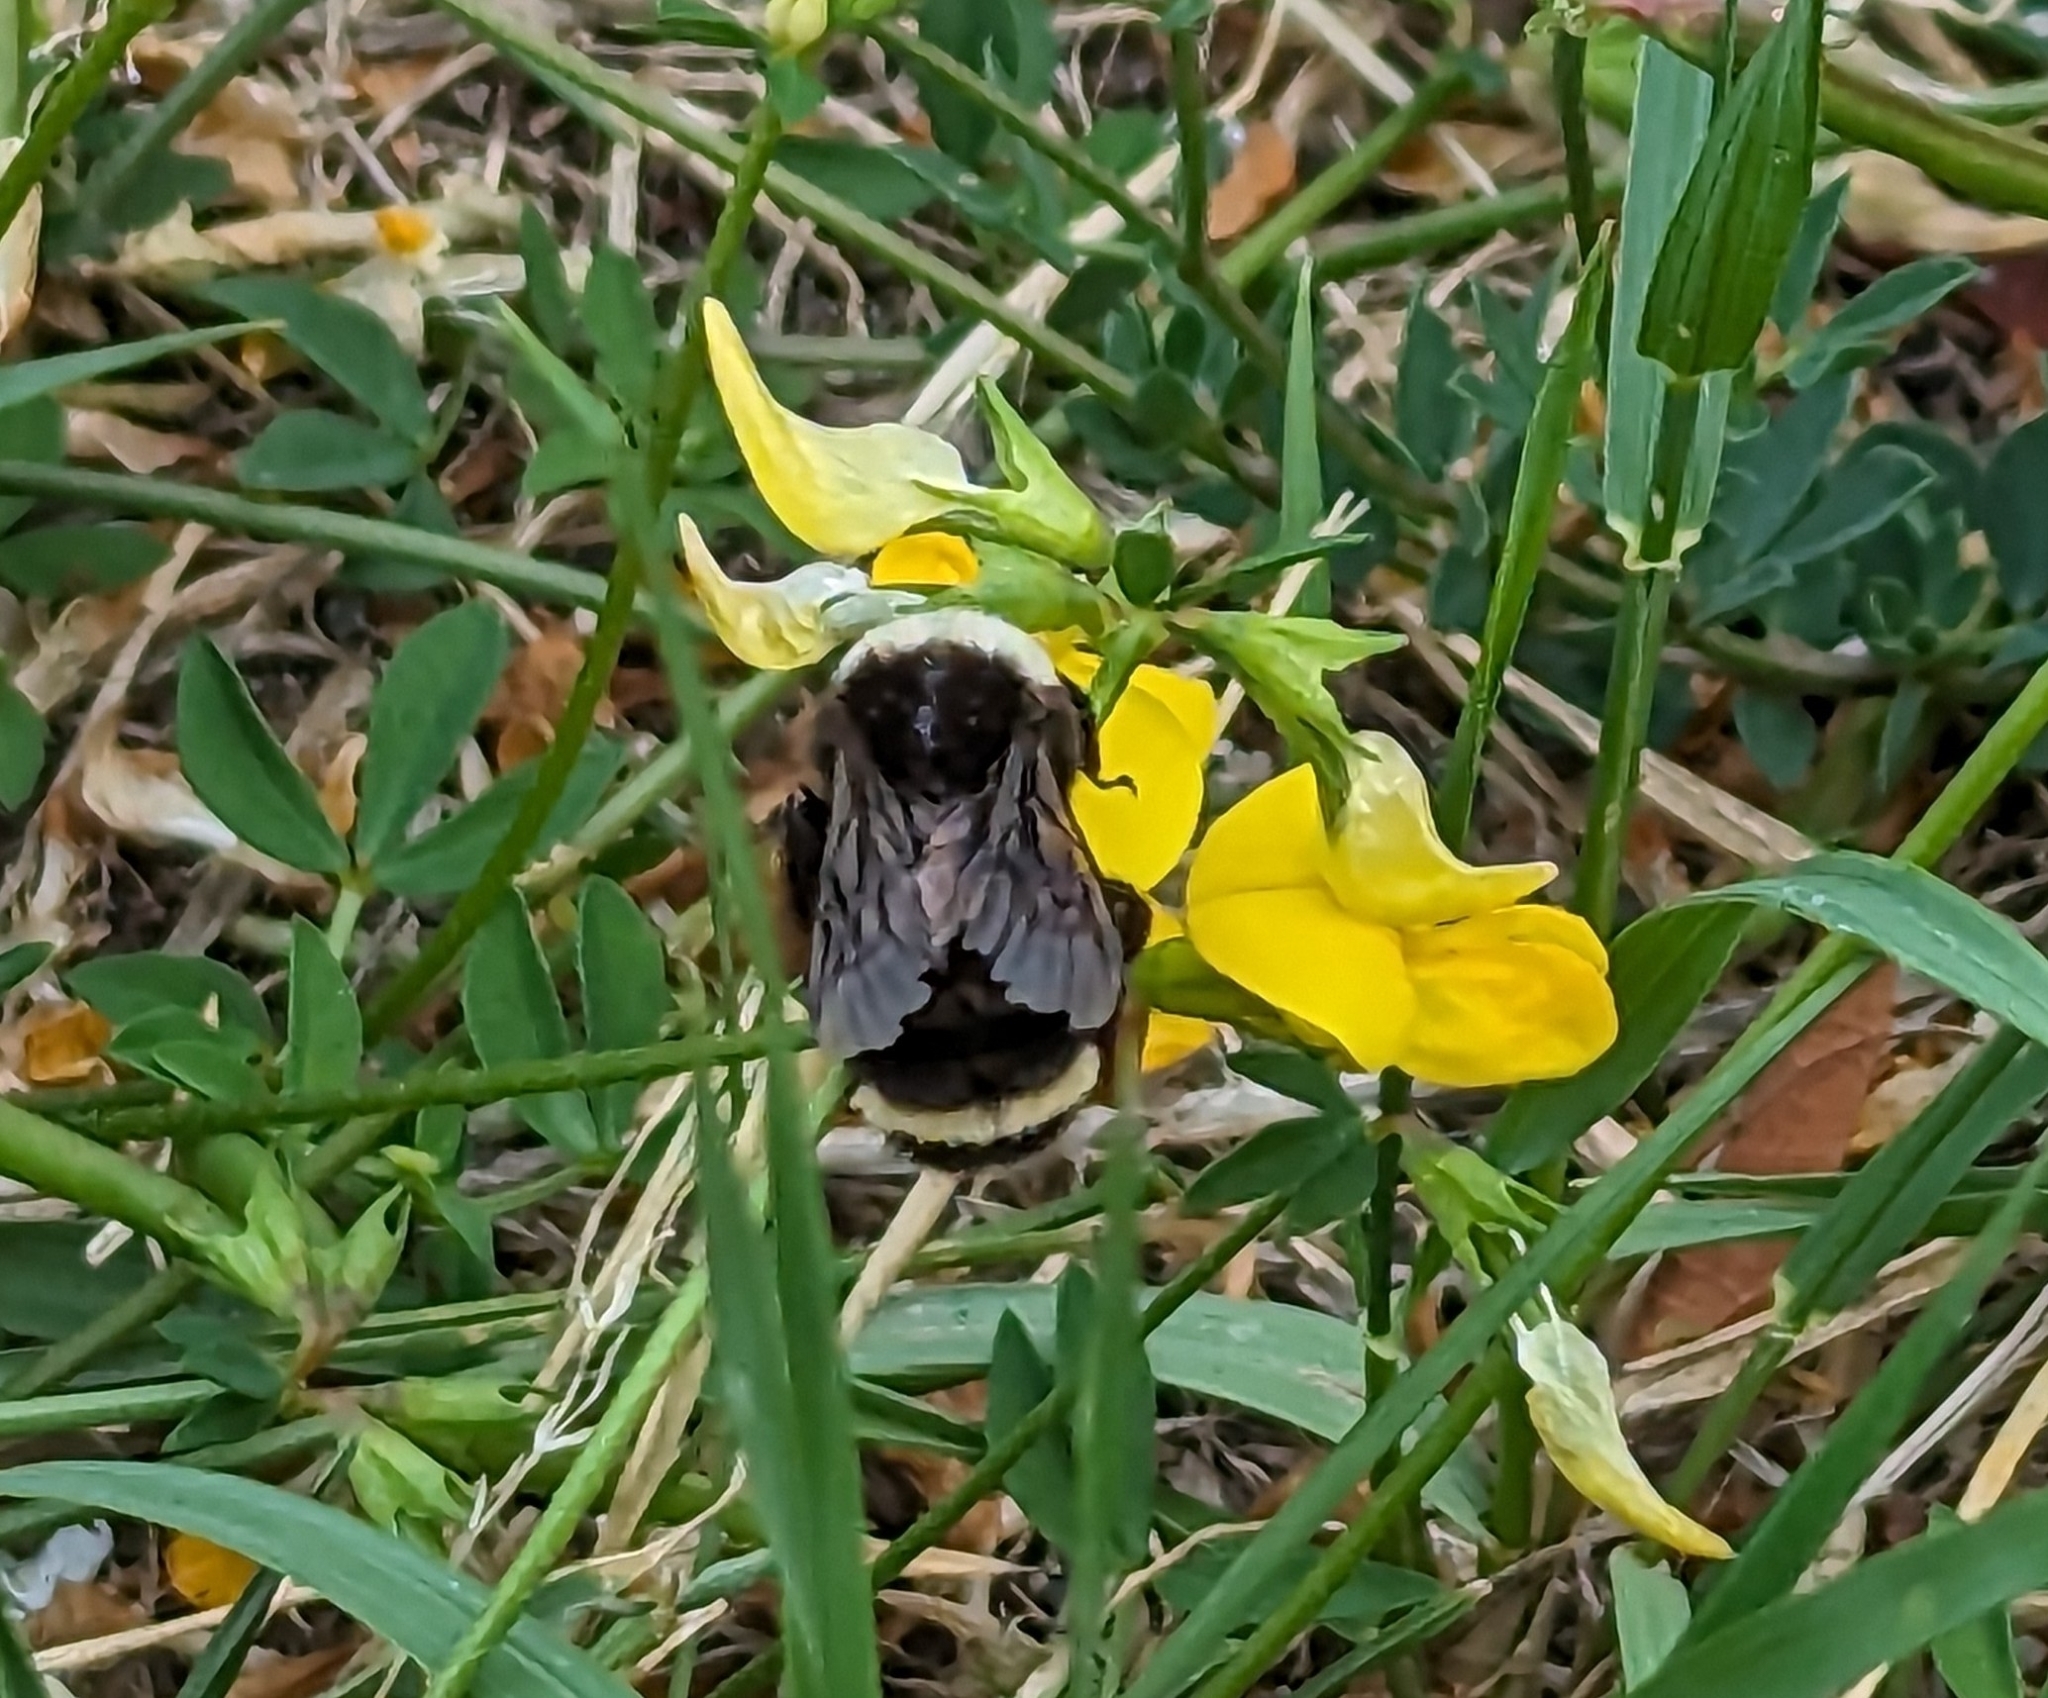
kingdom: Animalia
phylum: Arthropoda
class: Insecta
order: Hymenoptera
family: Apidae
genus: Bombus
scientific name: Bombus vosnesenskii
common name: Vosnesensky bumble bee
